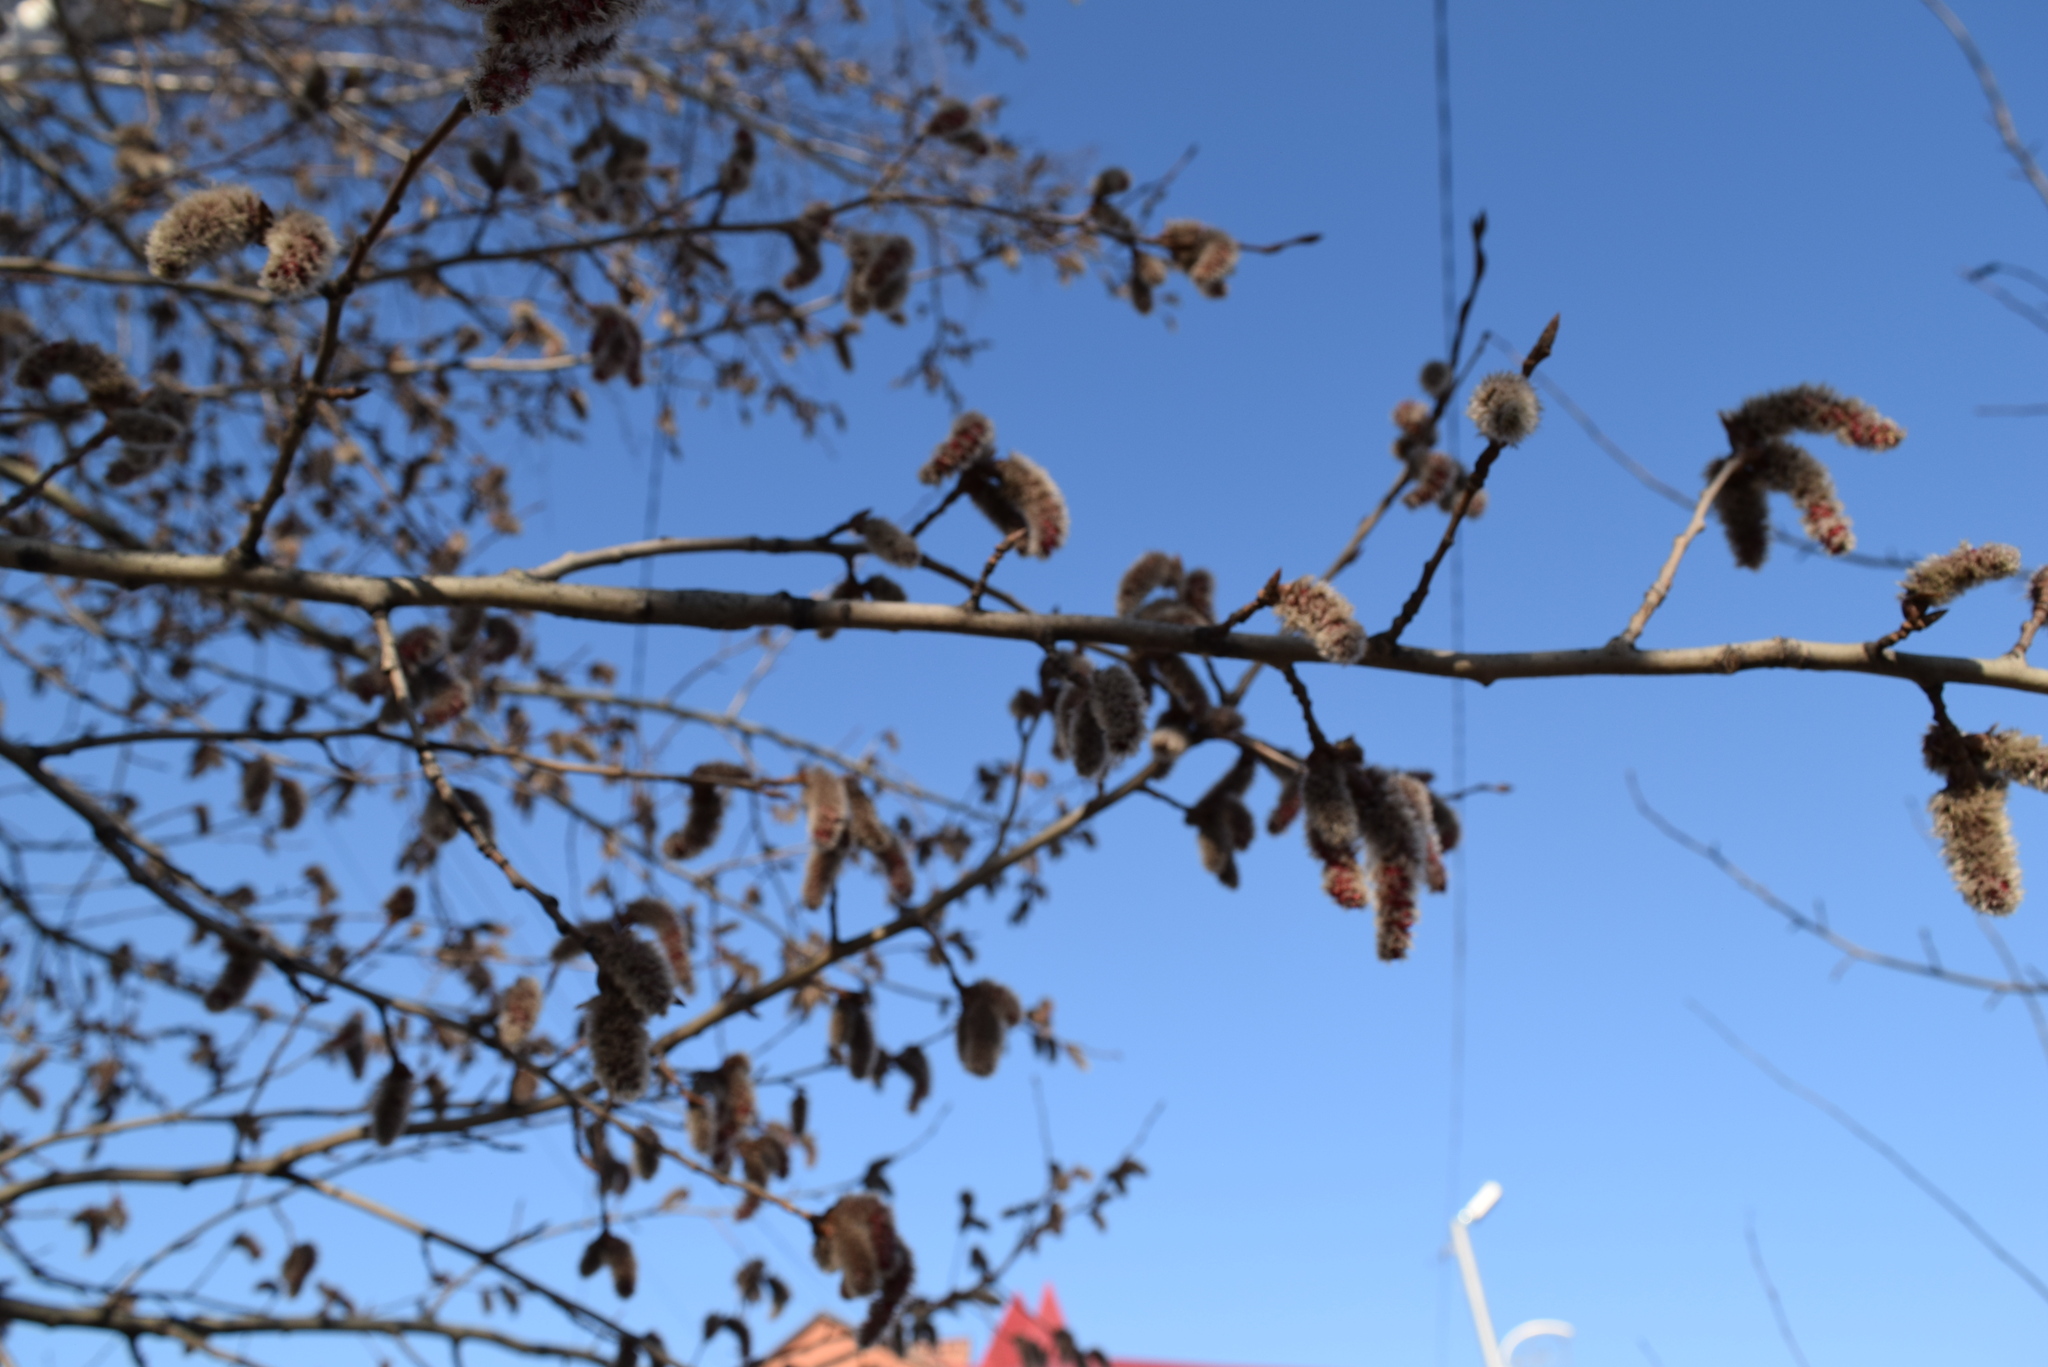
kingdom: Plantae
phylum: Tracheophyta
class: Magnoliopsida
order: Malpighiales
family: Salicaceae
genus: Populus
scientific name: Populus tremula
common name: European aspen
